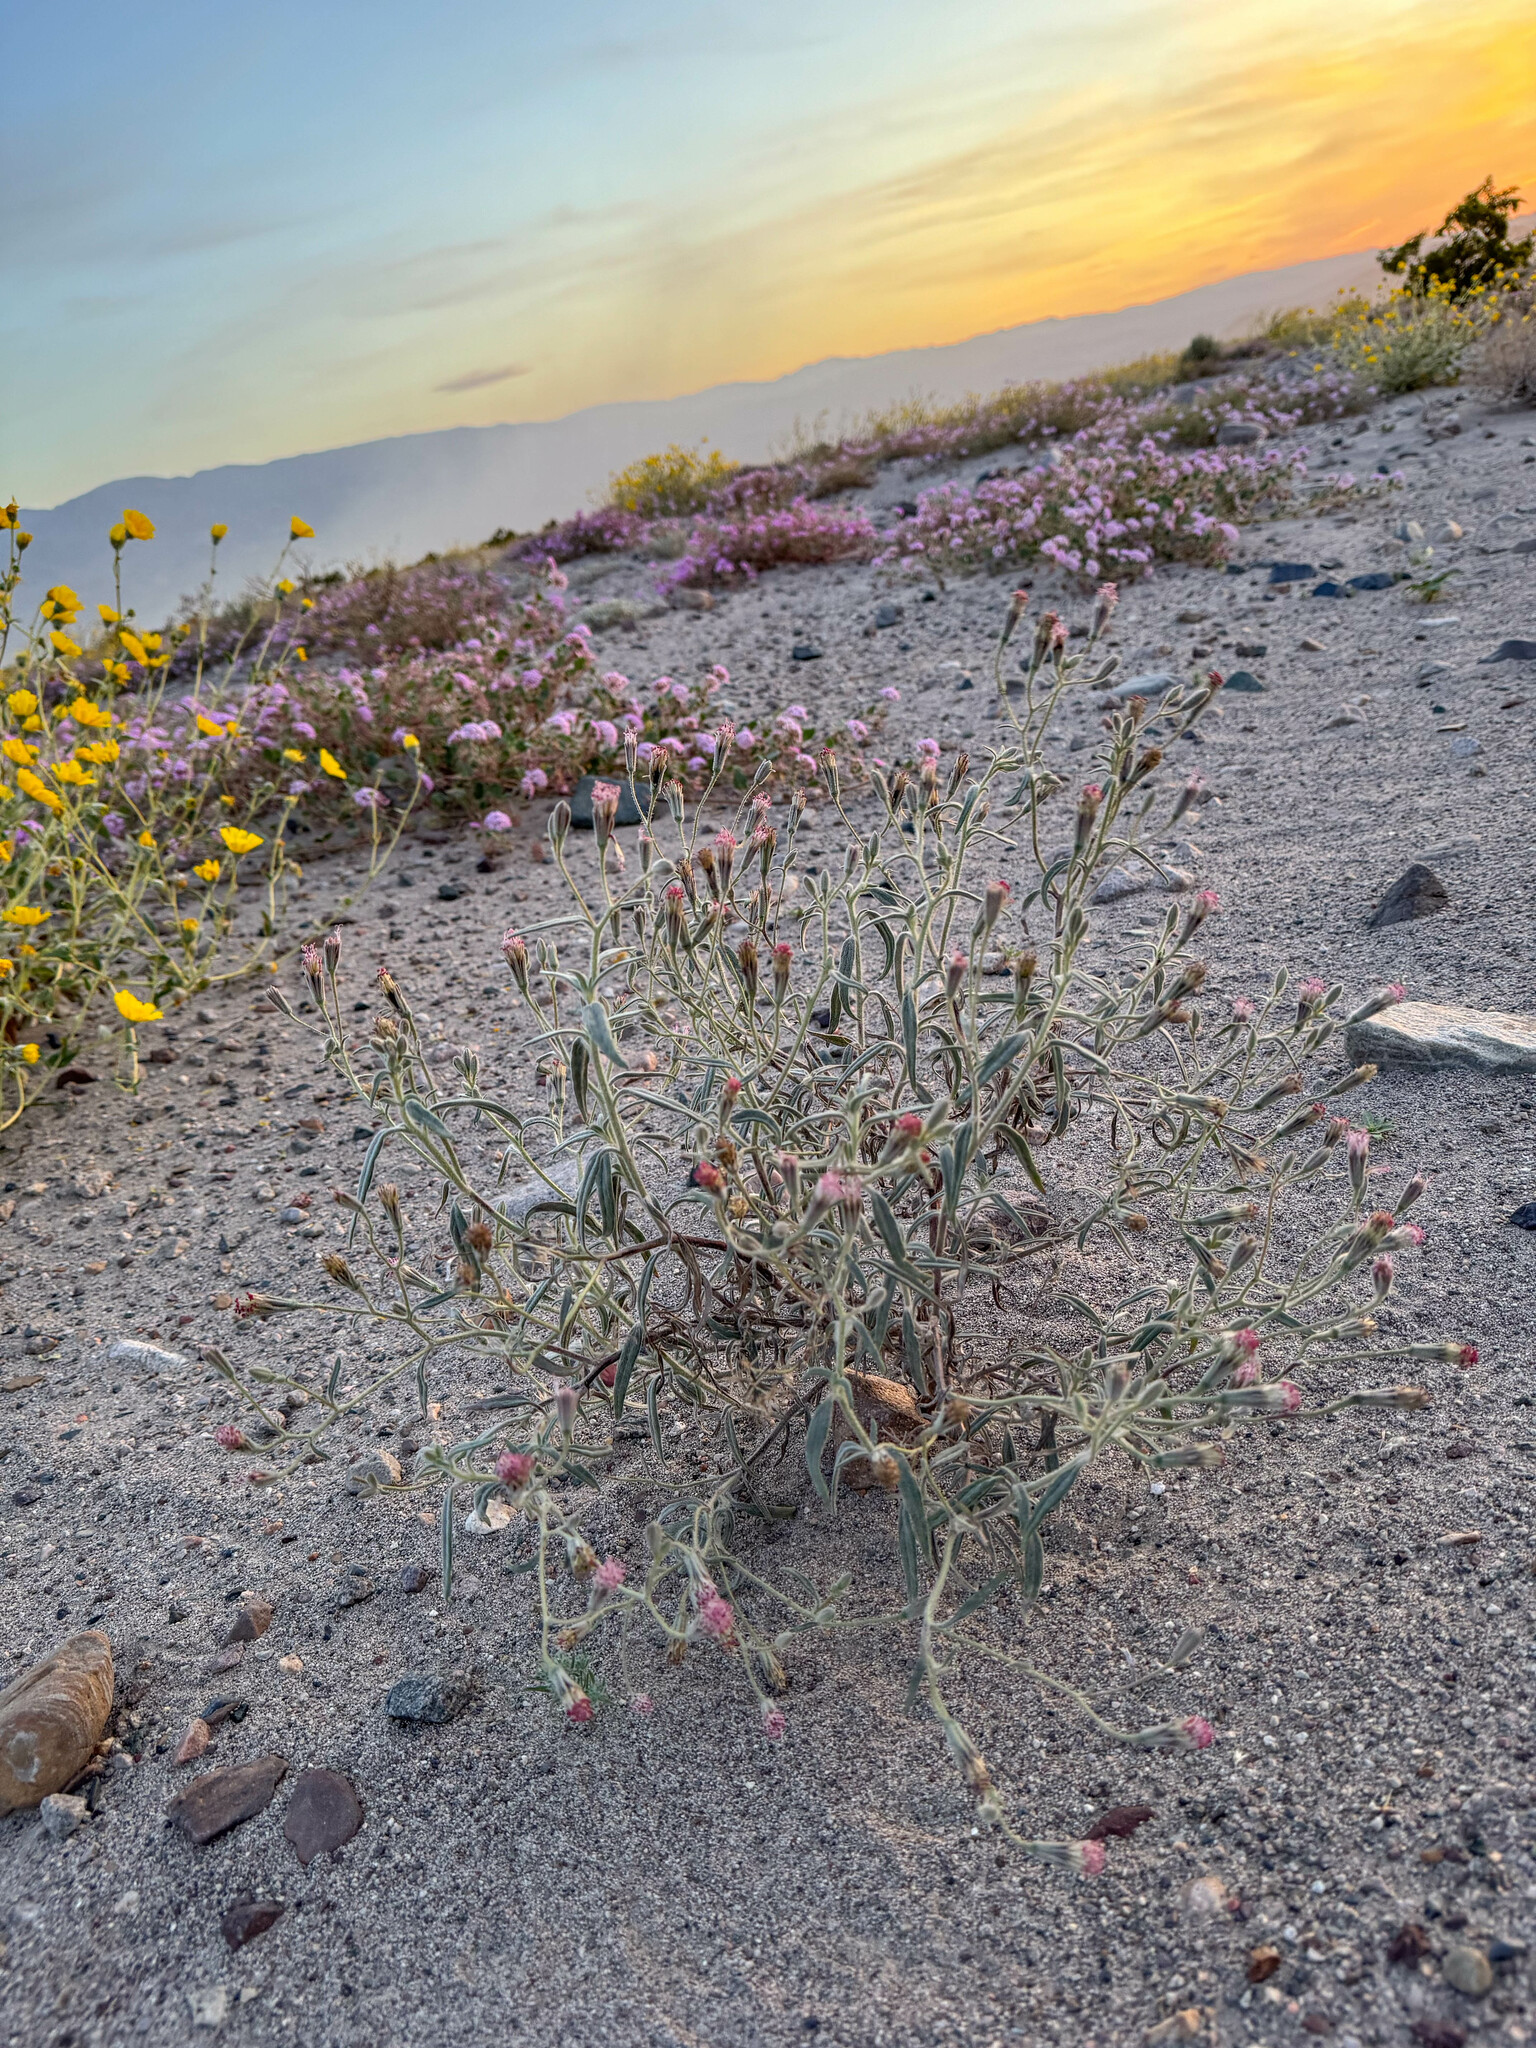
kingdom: Plantae
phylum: Tracheophyta
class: Magnoliopsida
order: Asterales
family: Asteraceae
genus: Palafoxia
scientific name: Palafoxia arida
